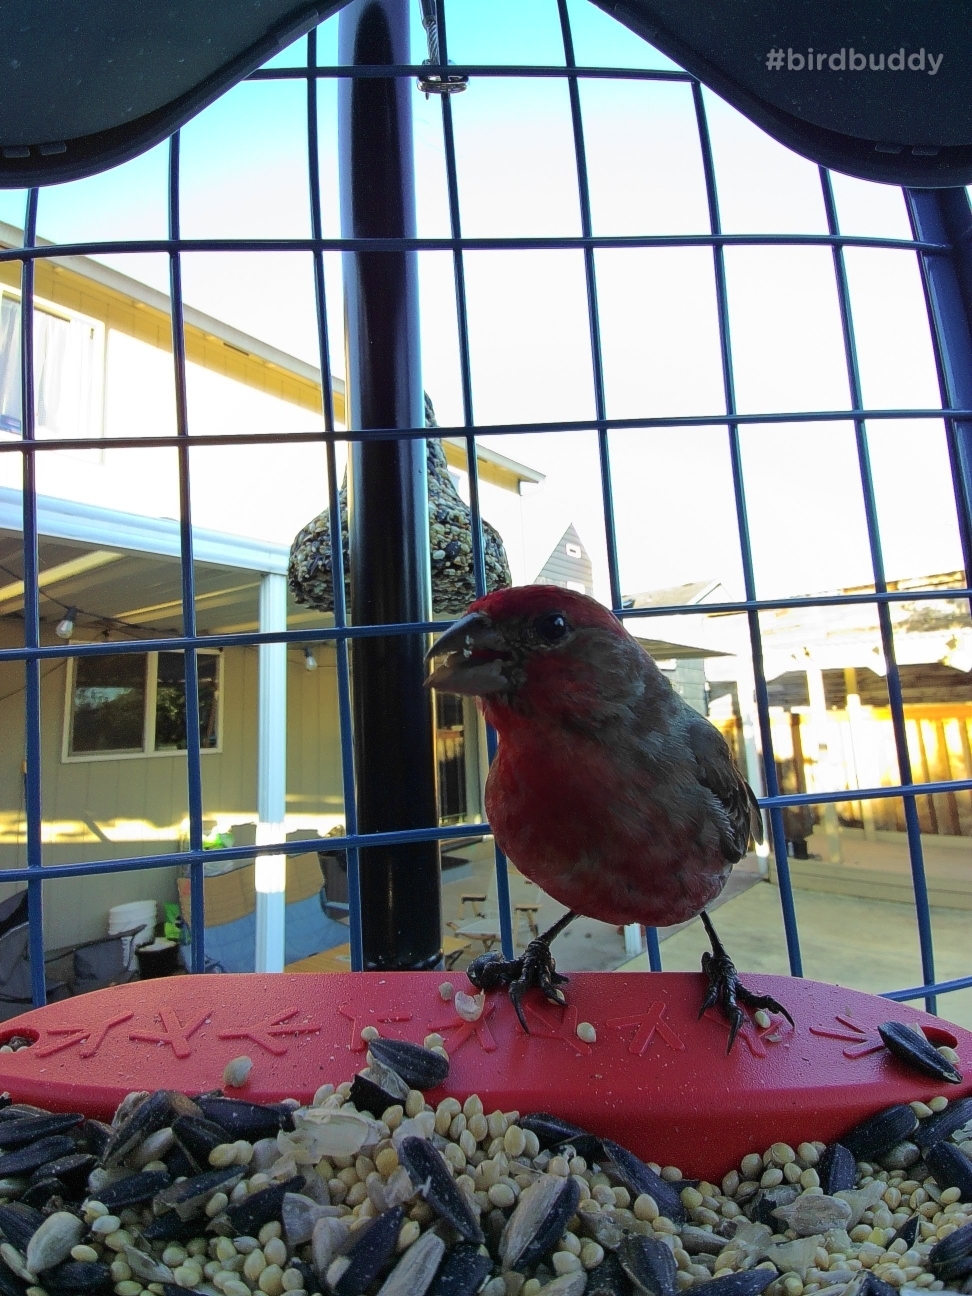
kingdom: Animalia
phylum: Chordata
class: Aves
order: Passeriformes
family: Fringillidae
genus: Haemorhous
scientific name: Haemorhous mexicanus
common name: House finch
